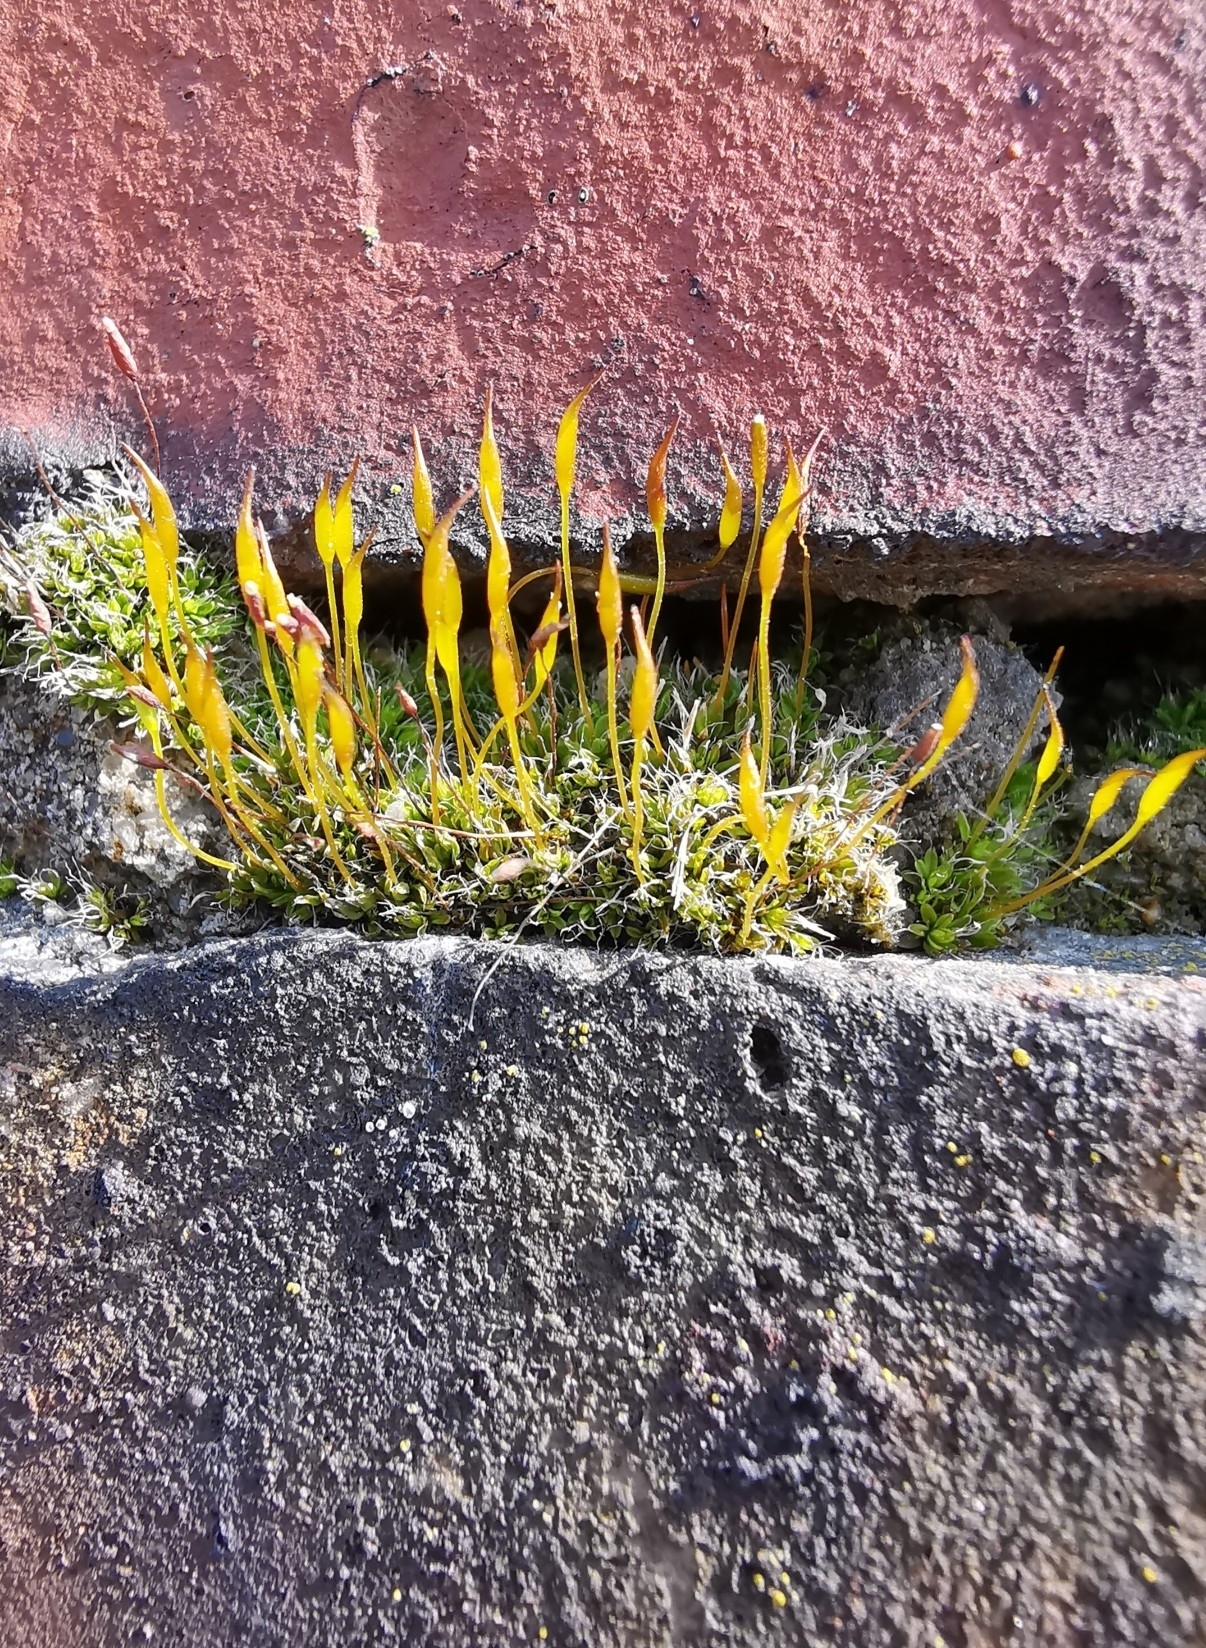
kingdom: Plantae
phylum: Bryophyta
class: Bryopsida
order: Pottiales
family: Pottiaceae
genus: Tortula
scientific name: Tortula muralis
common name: Wall screw-moss
